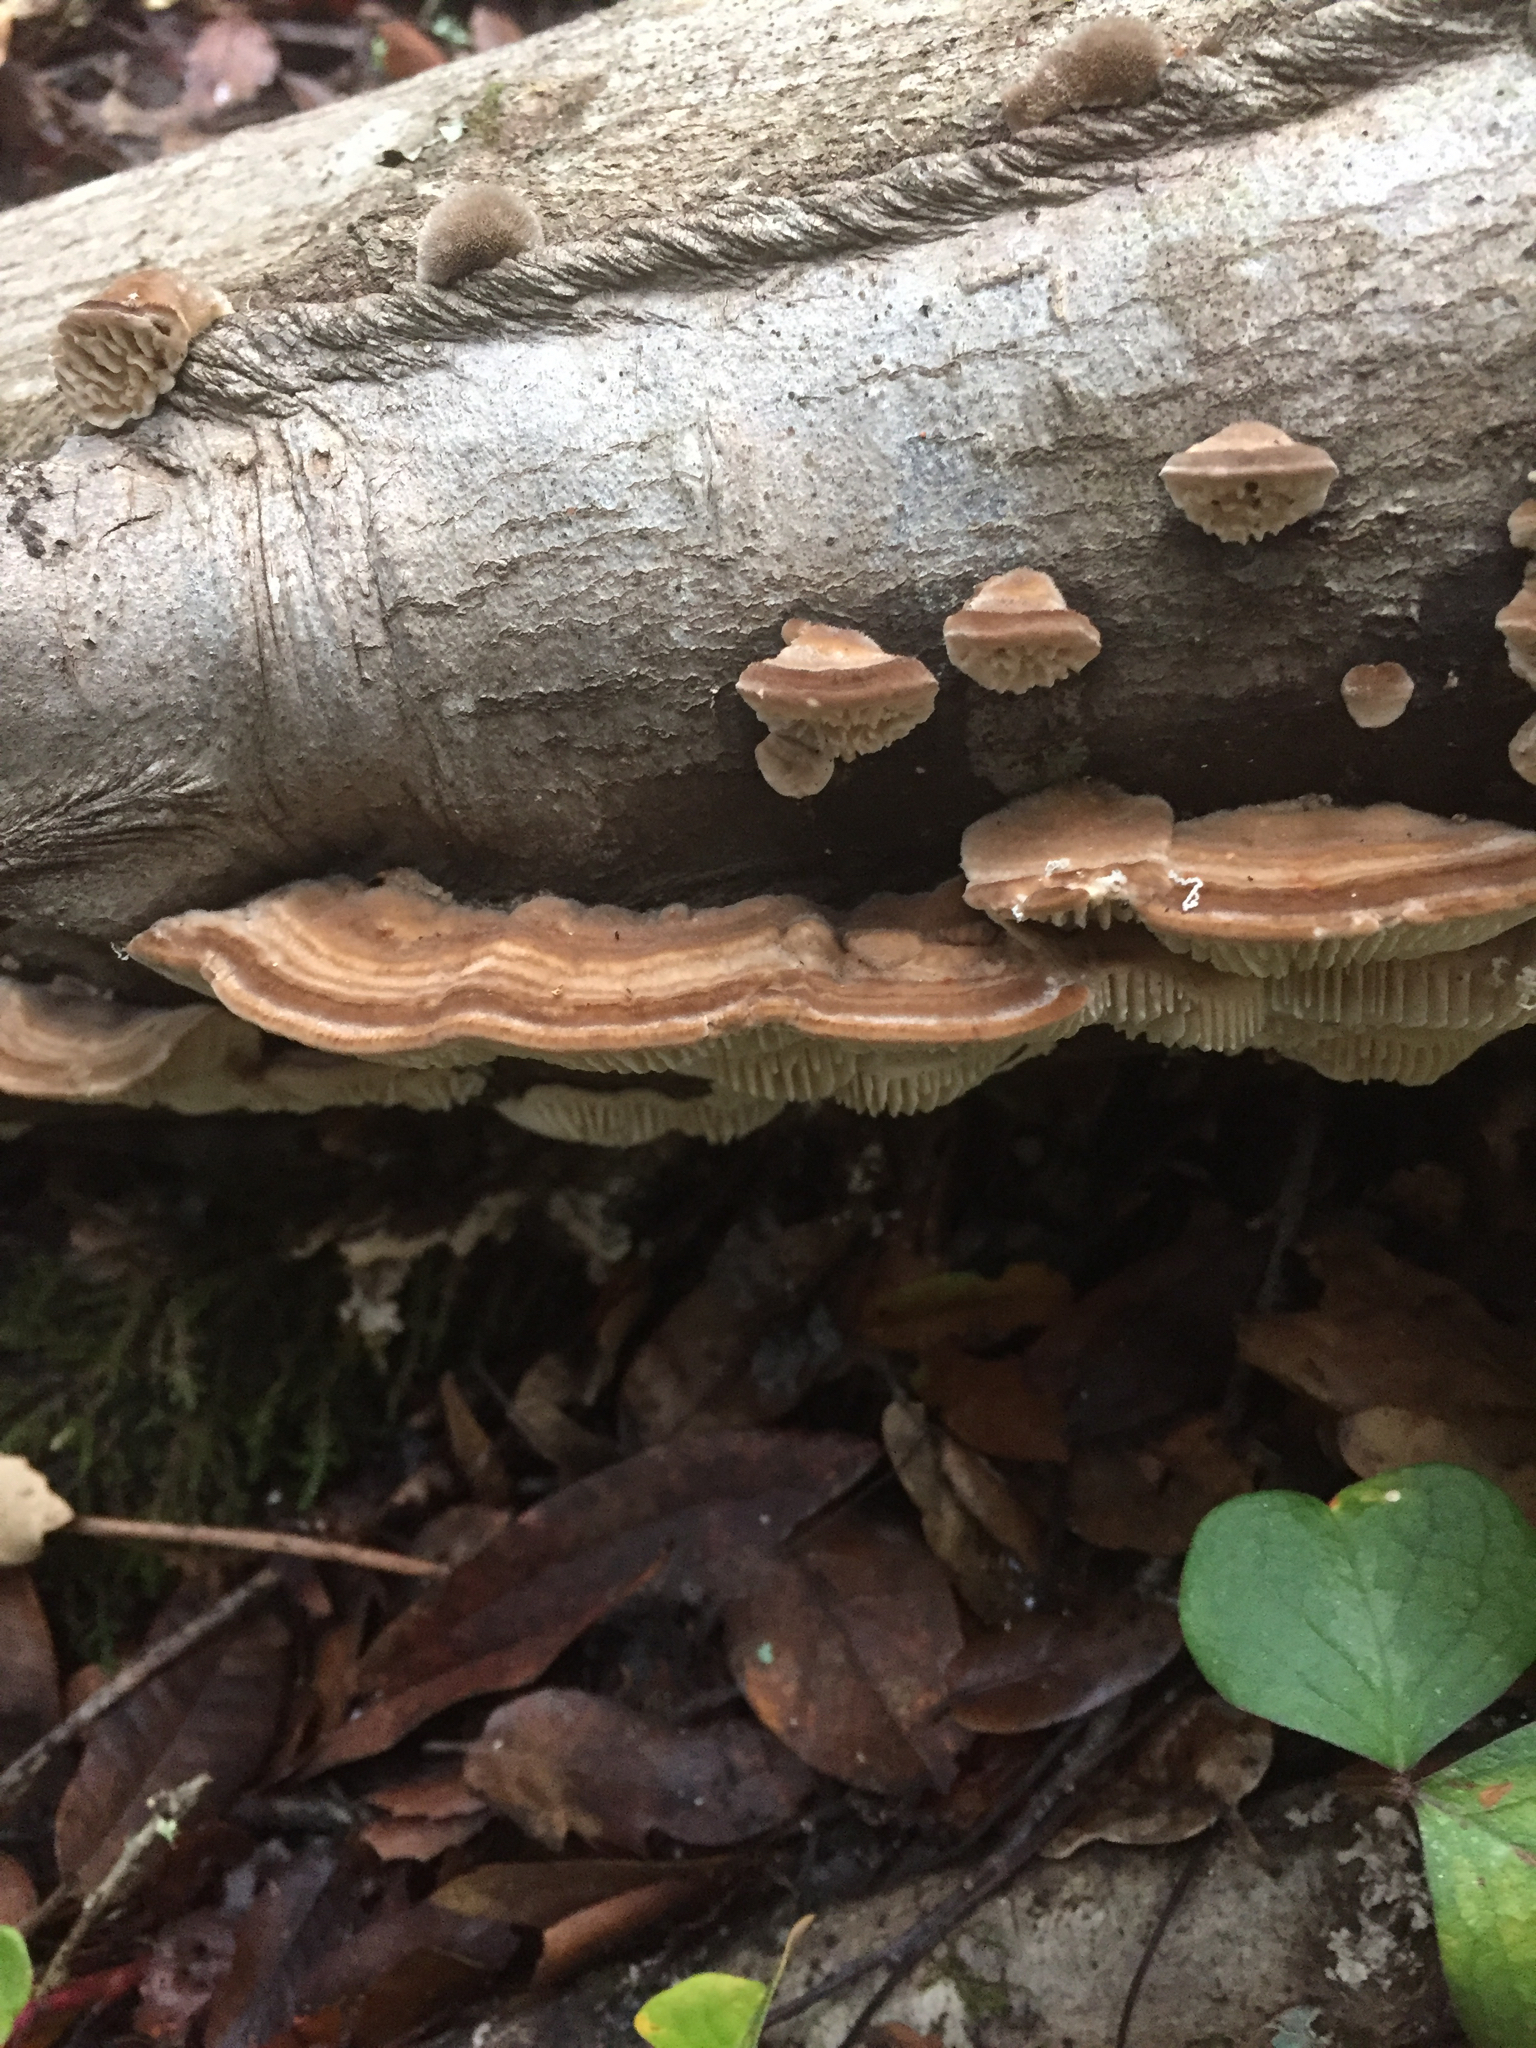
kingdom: Fungi
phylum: Basidiomycota
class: Agaricomycetes
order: Polyporales
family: Polyporaceae
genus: Lenzites
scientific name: Lenzites betulinus
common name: Birch mazegill
